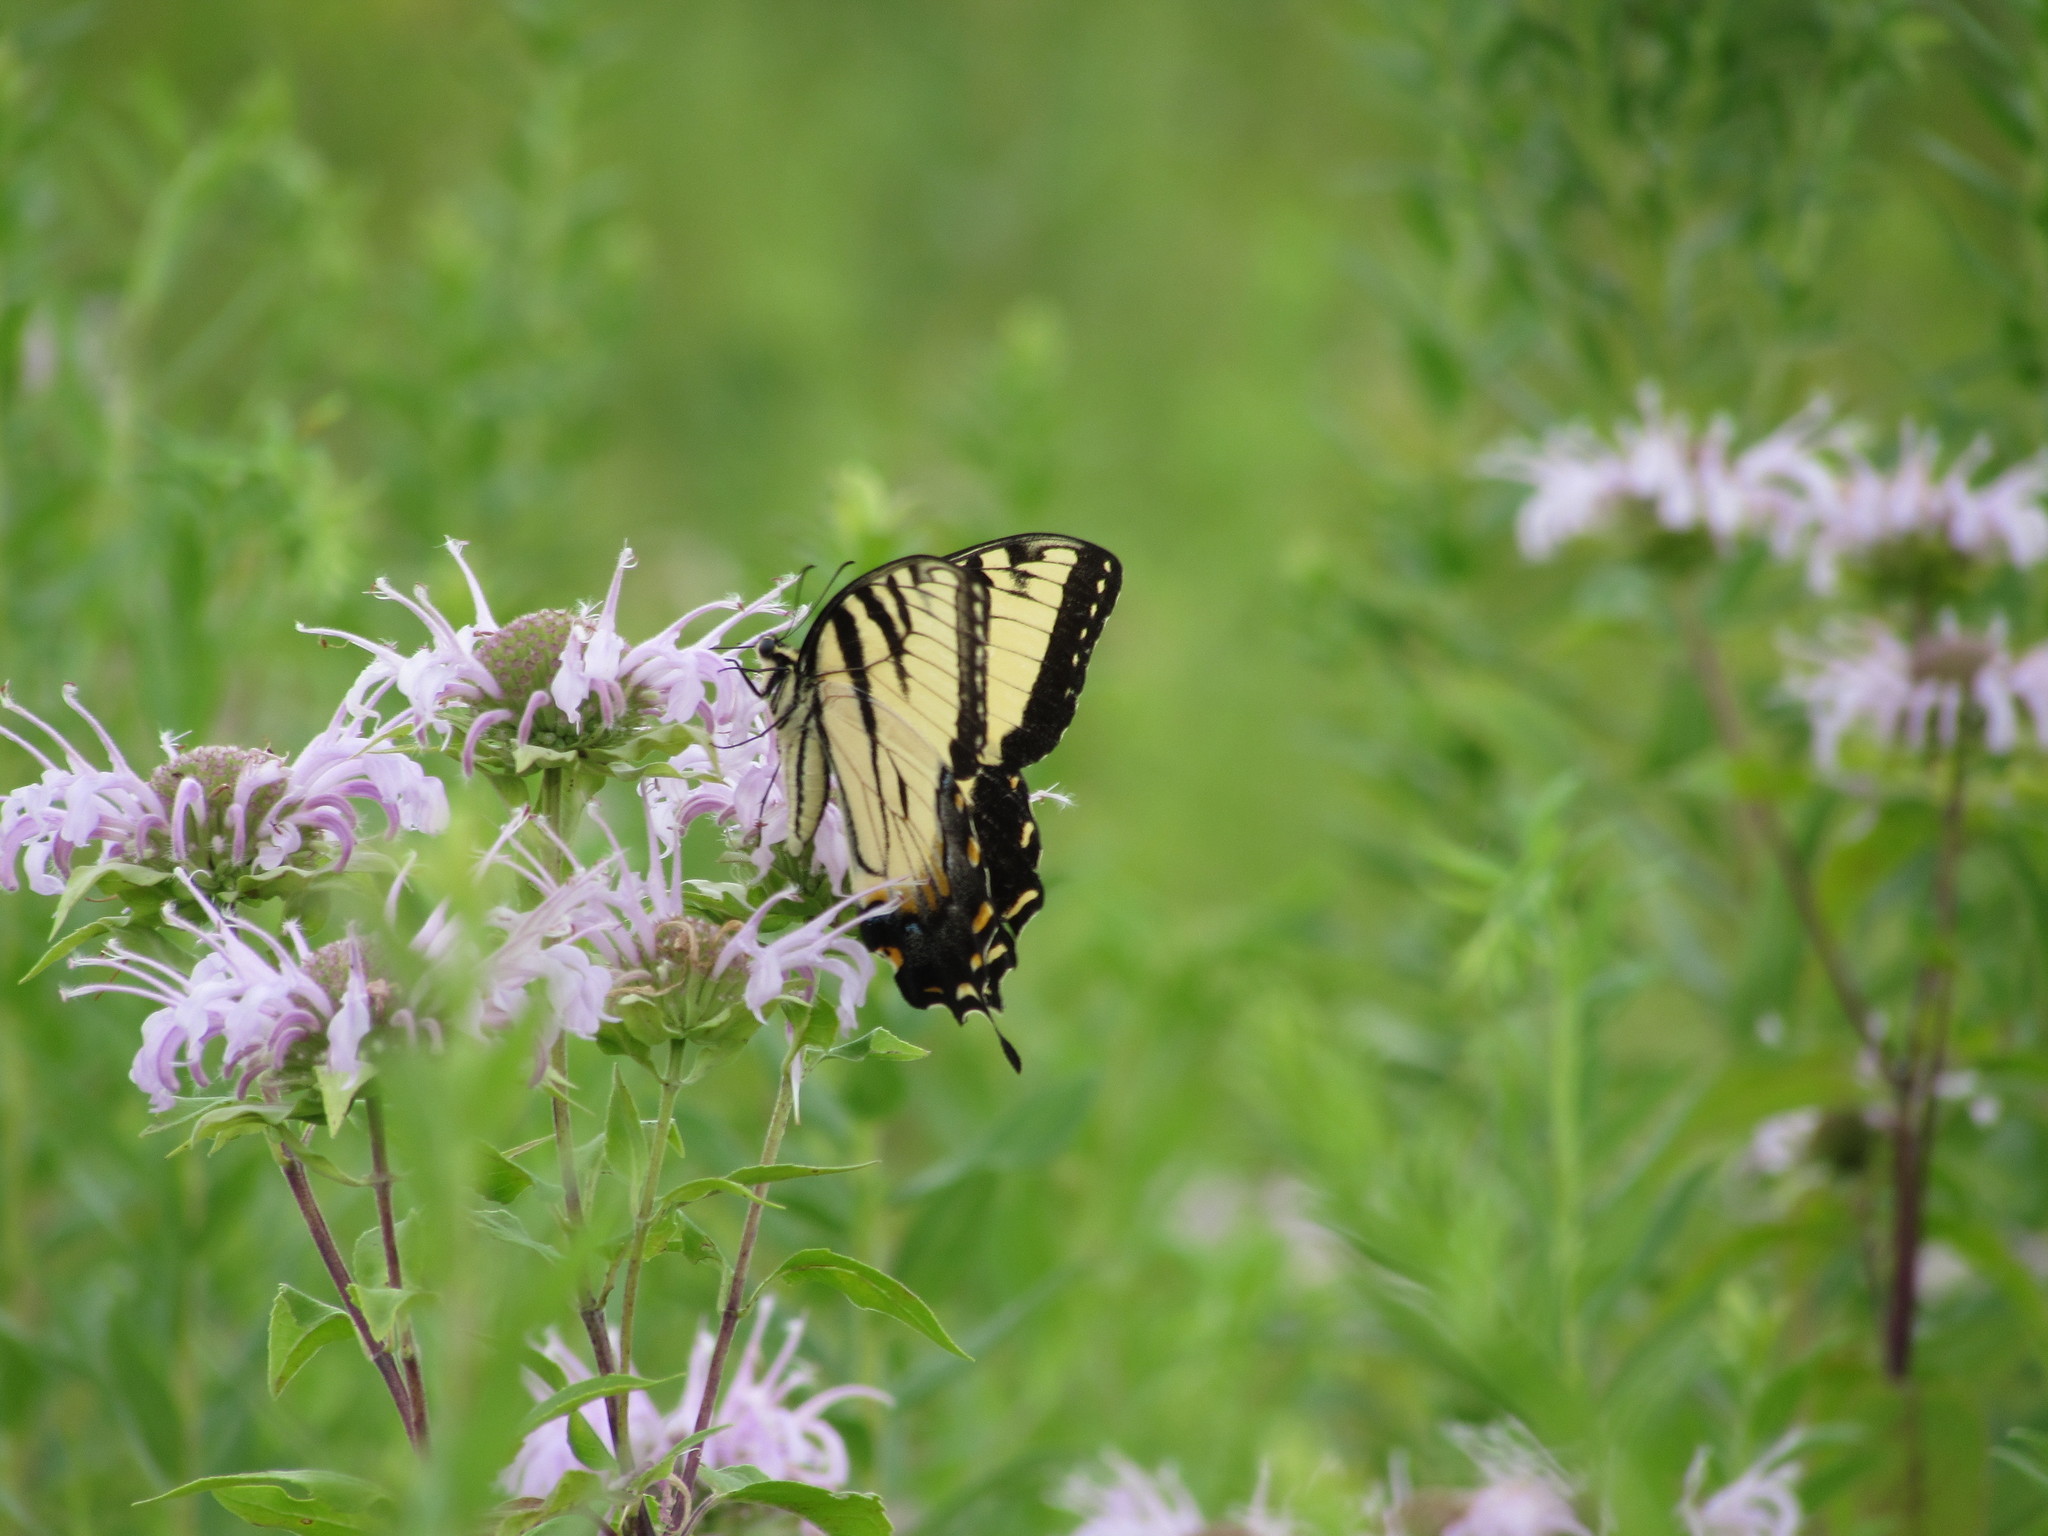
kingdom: Animalia
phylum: Arthropoda
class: Insecta
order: Lepidoptera
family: Papilionidae
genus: Papilio
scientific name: Papilio glaucus
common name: Tiger swallowtail
